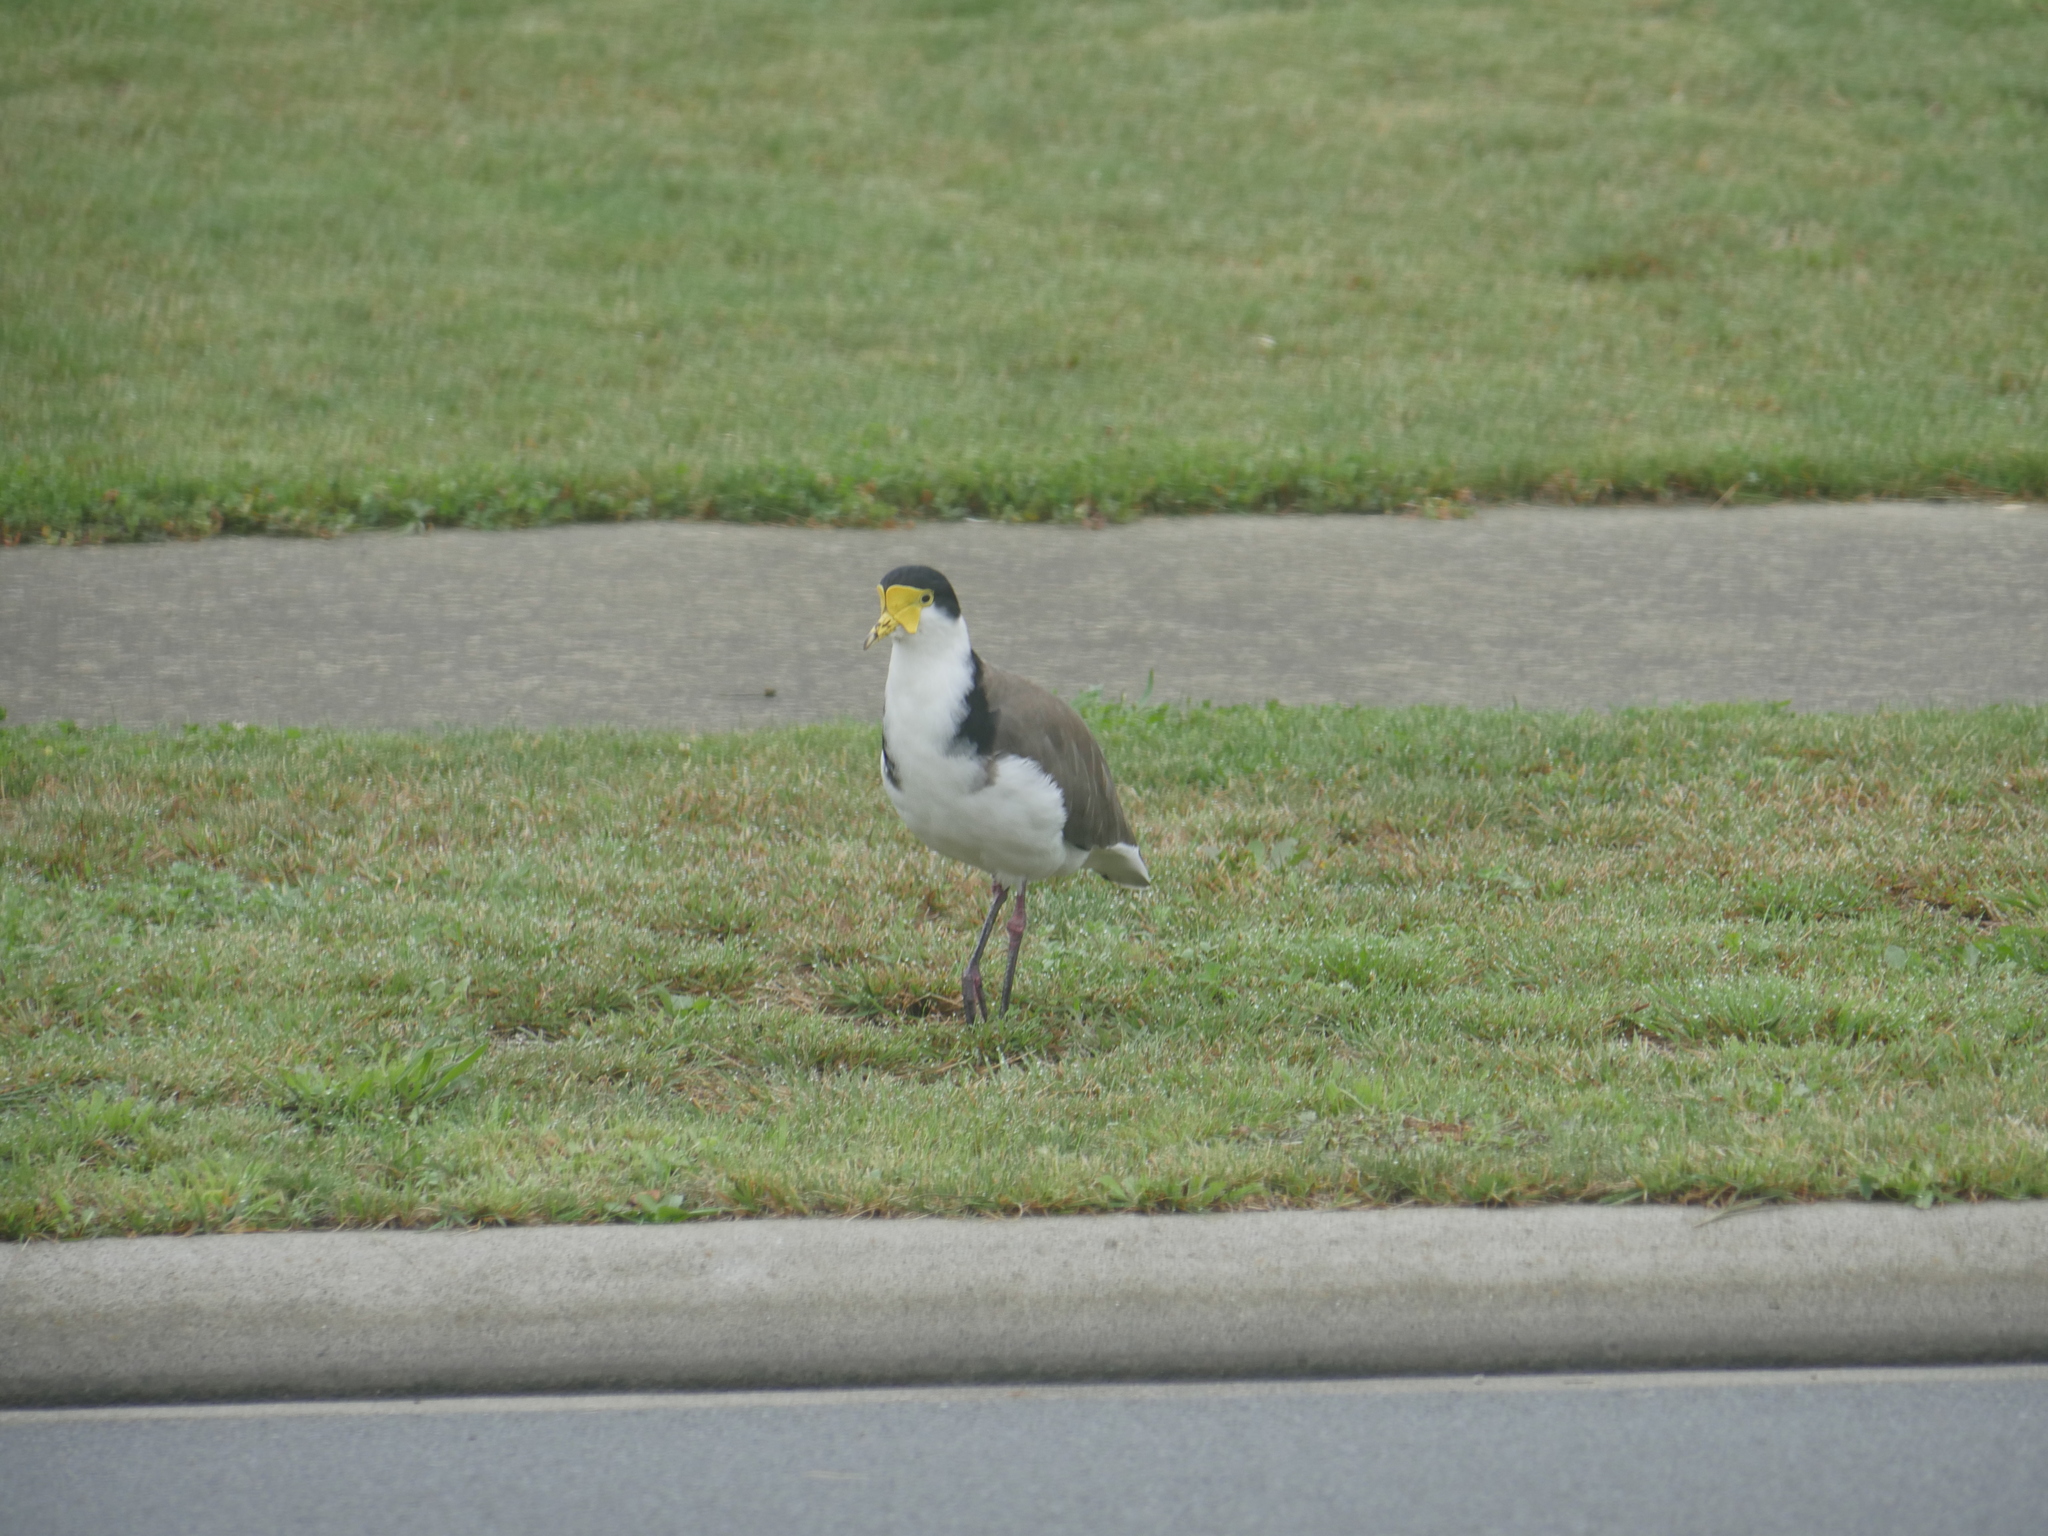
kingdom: Animalia
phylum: Chordata
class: Aves
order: Charadriiformes
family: Charadriidae
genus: Vanellus
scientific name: Vanellus miles
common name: Masked lapwing
